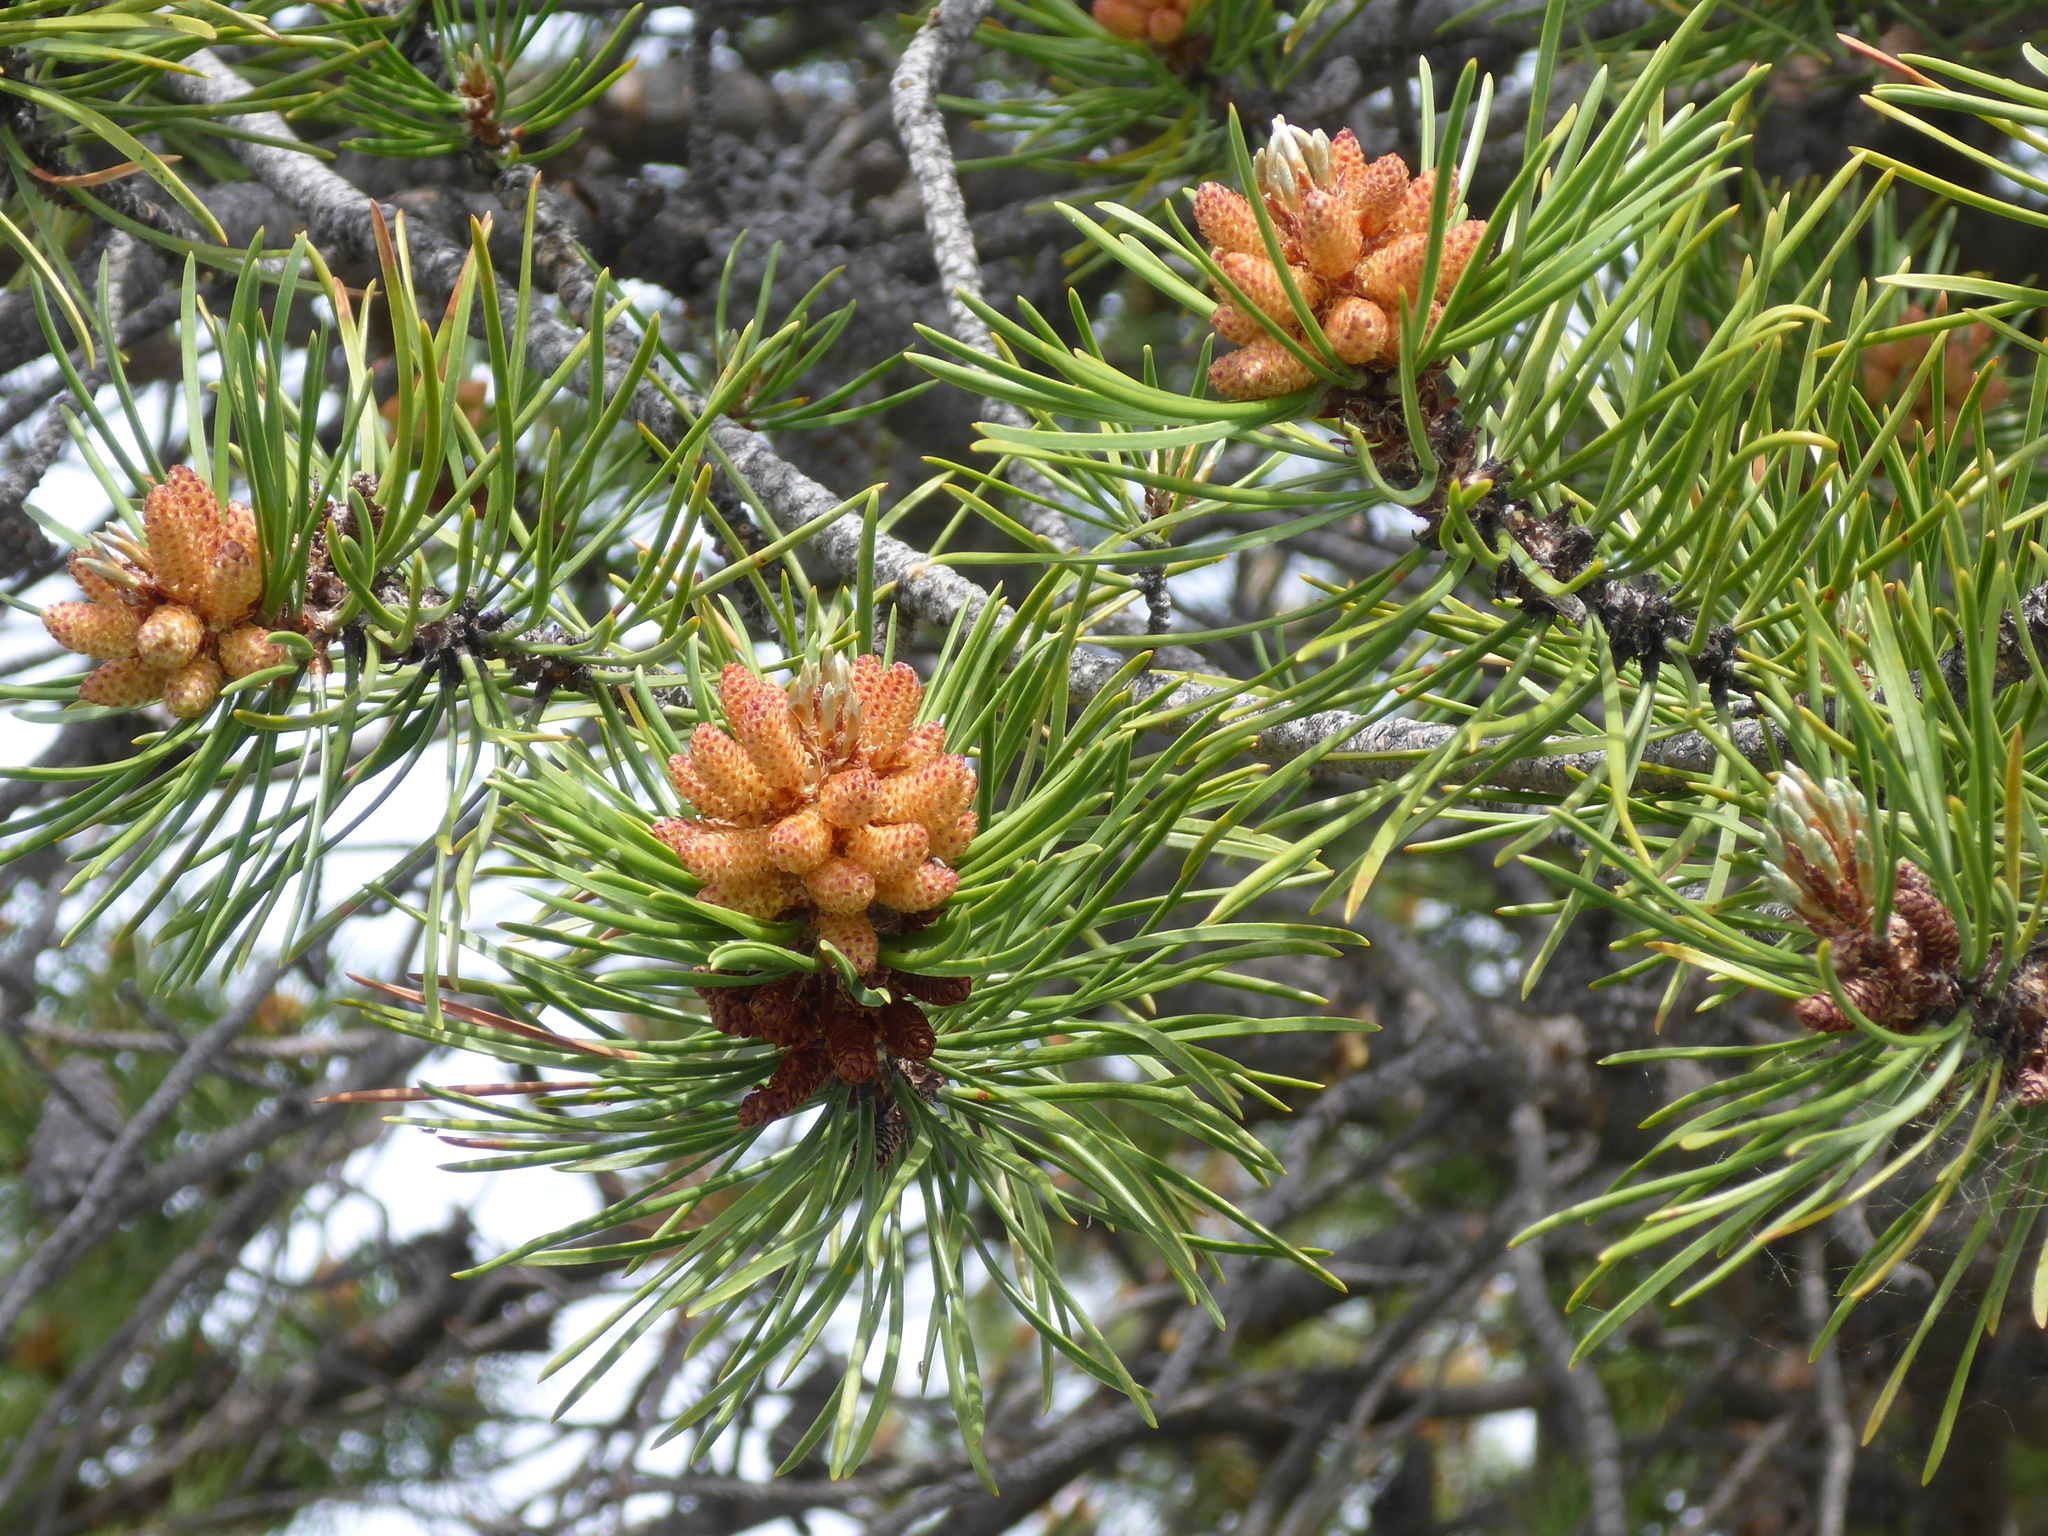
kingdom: Plantae
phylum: Tracheophyta
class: Pinopsida
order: Pinales
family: Pinaceae
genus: Pinus
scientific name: Pinus contorta
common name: Lodgepole pine
